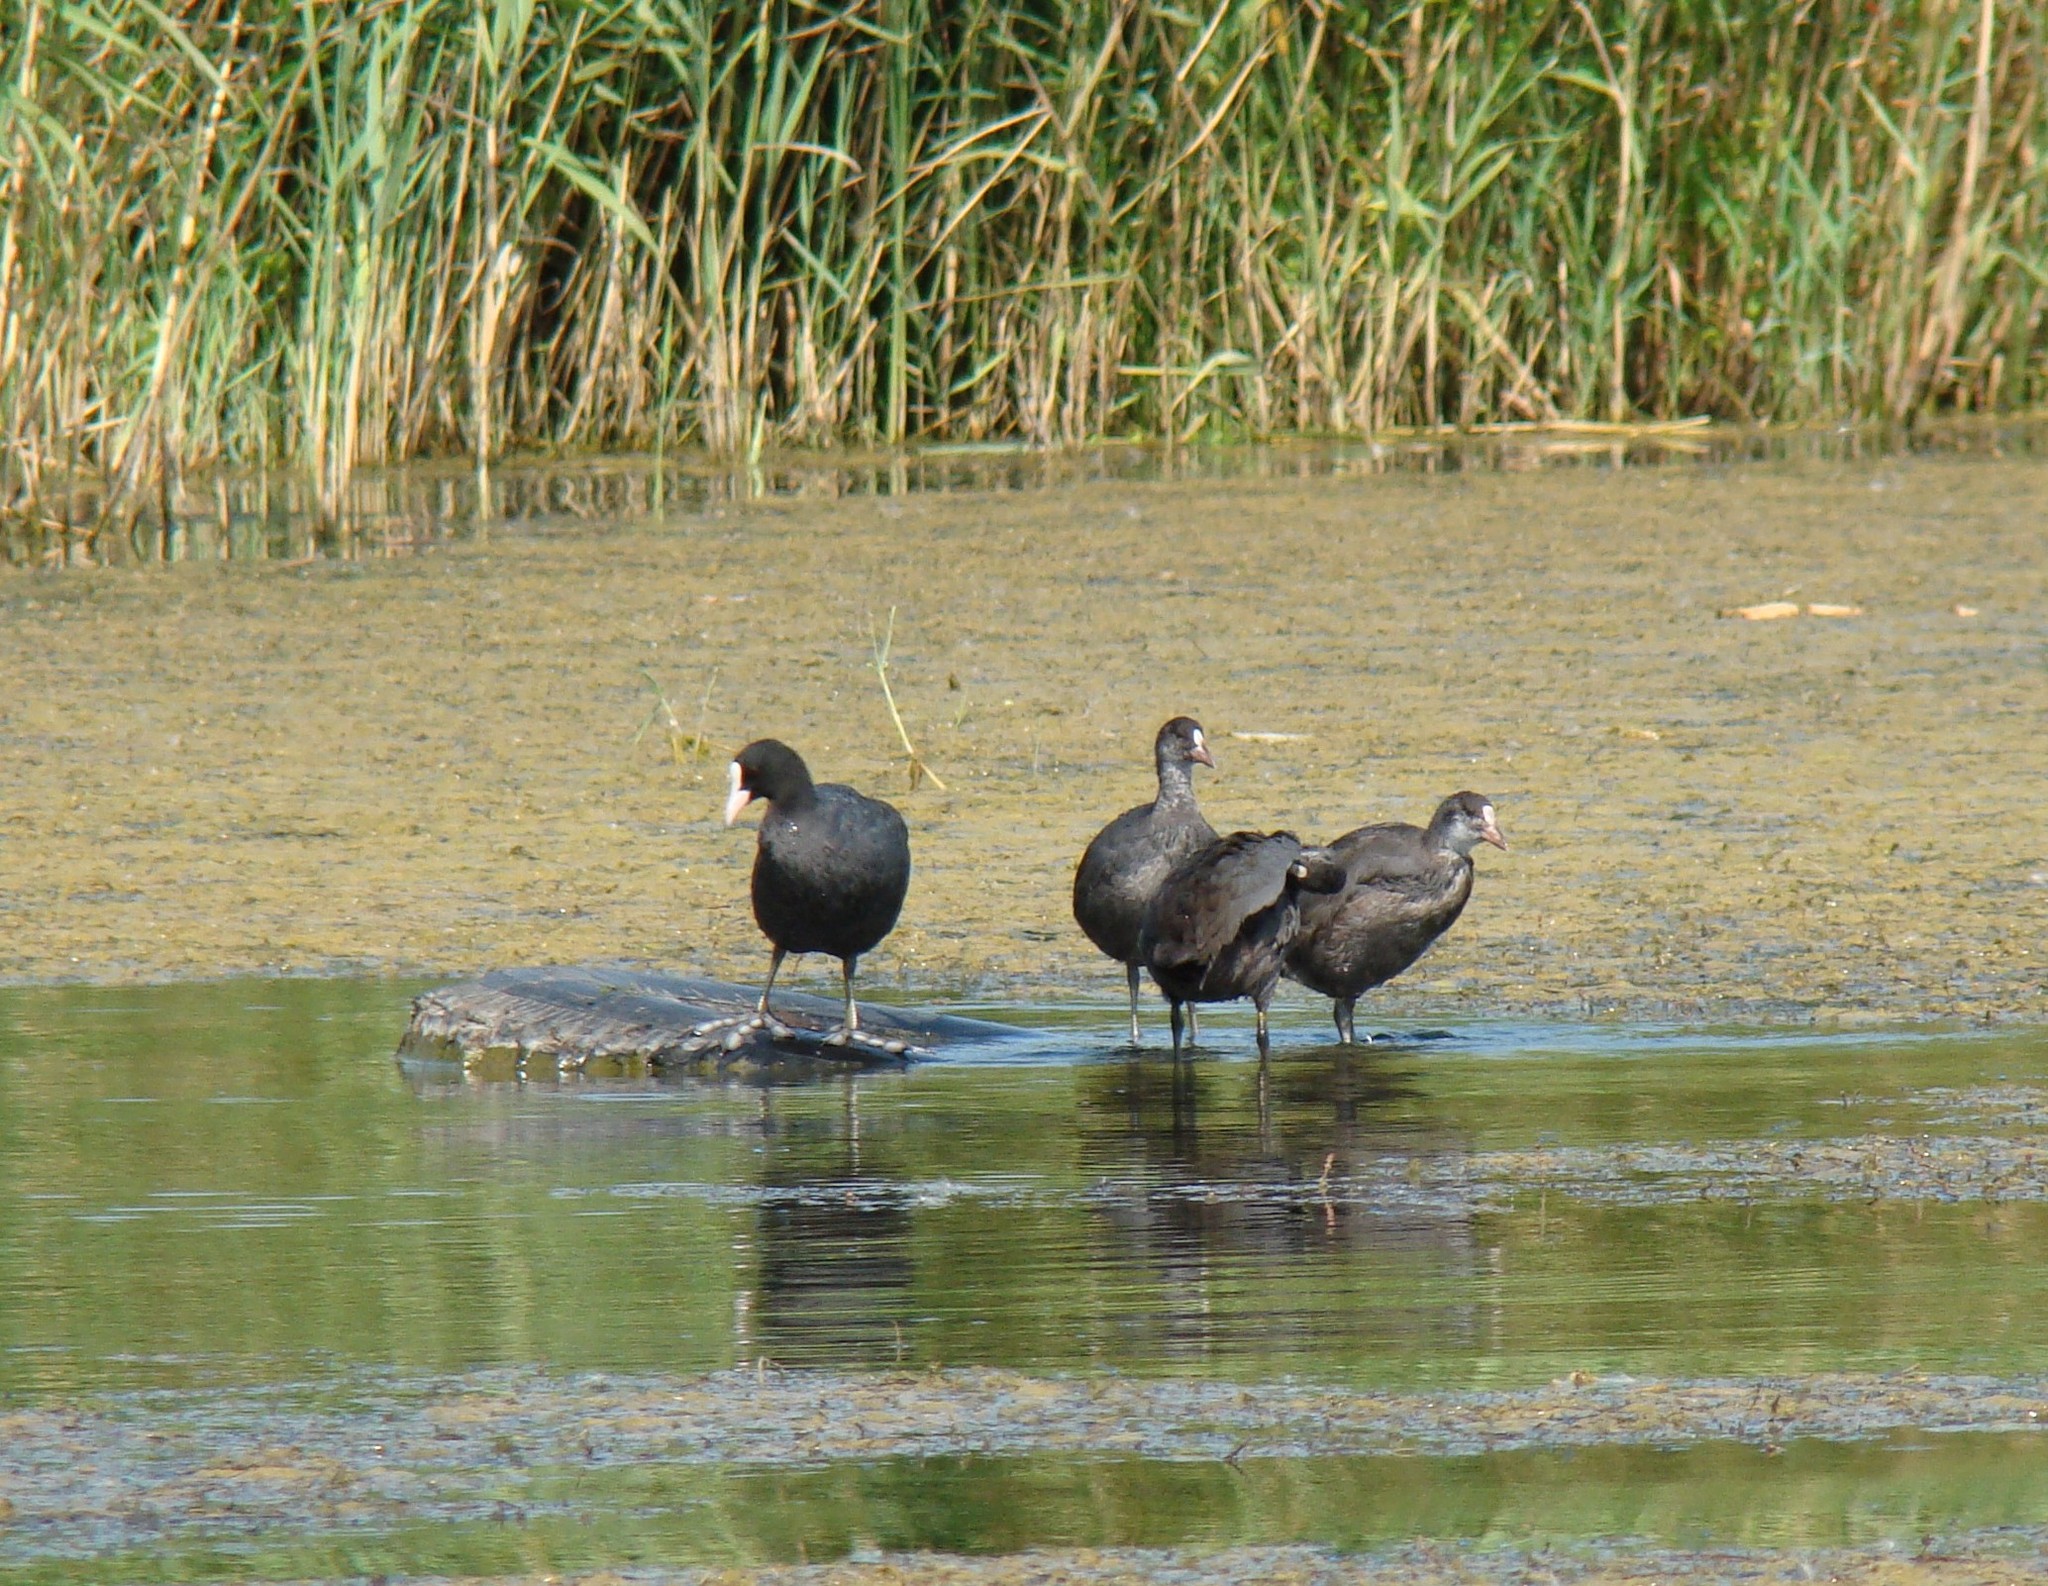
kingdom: Animalia
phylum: Chordata
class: Aves
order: Gruiformes
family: Rallidae
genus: Fulica
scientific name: Fulica atra
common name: Eurasian coot
